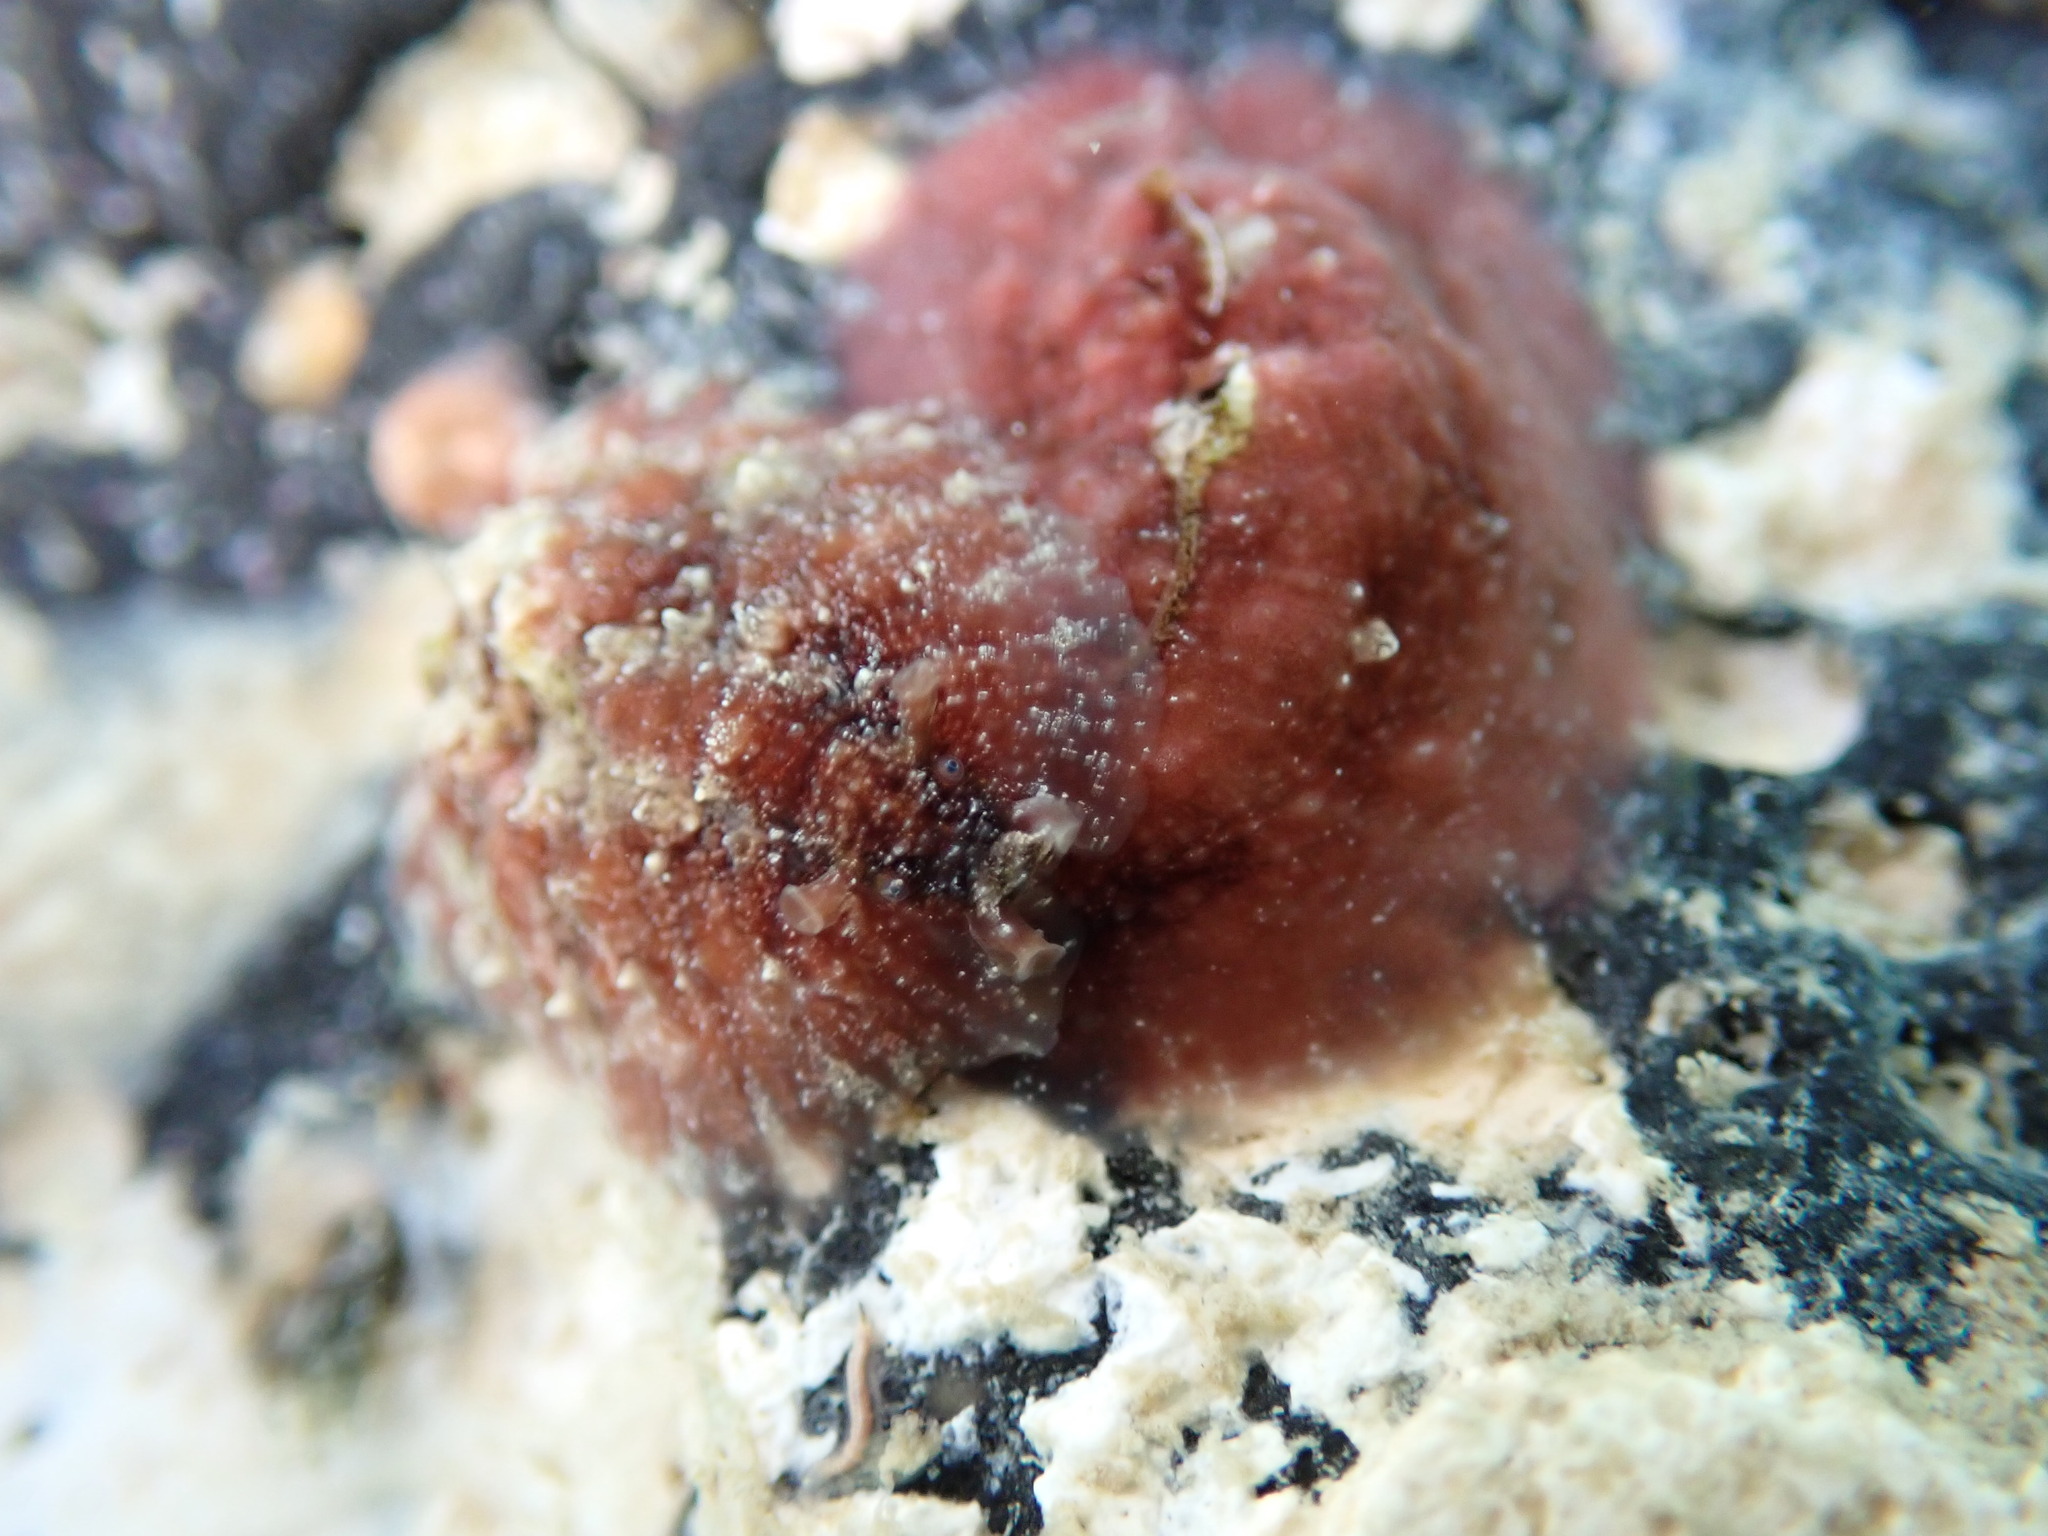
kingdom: Animalia
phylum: Mollusca
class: Gastropoda
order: Aplysiida
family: Aplysiidae
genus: Dolabrifera
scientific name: Dolabrifera dolabrifera
